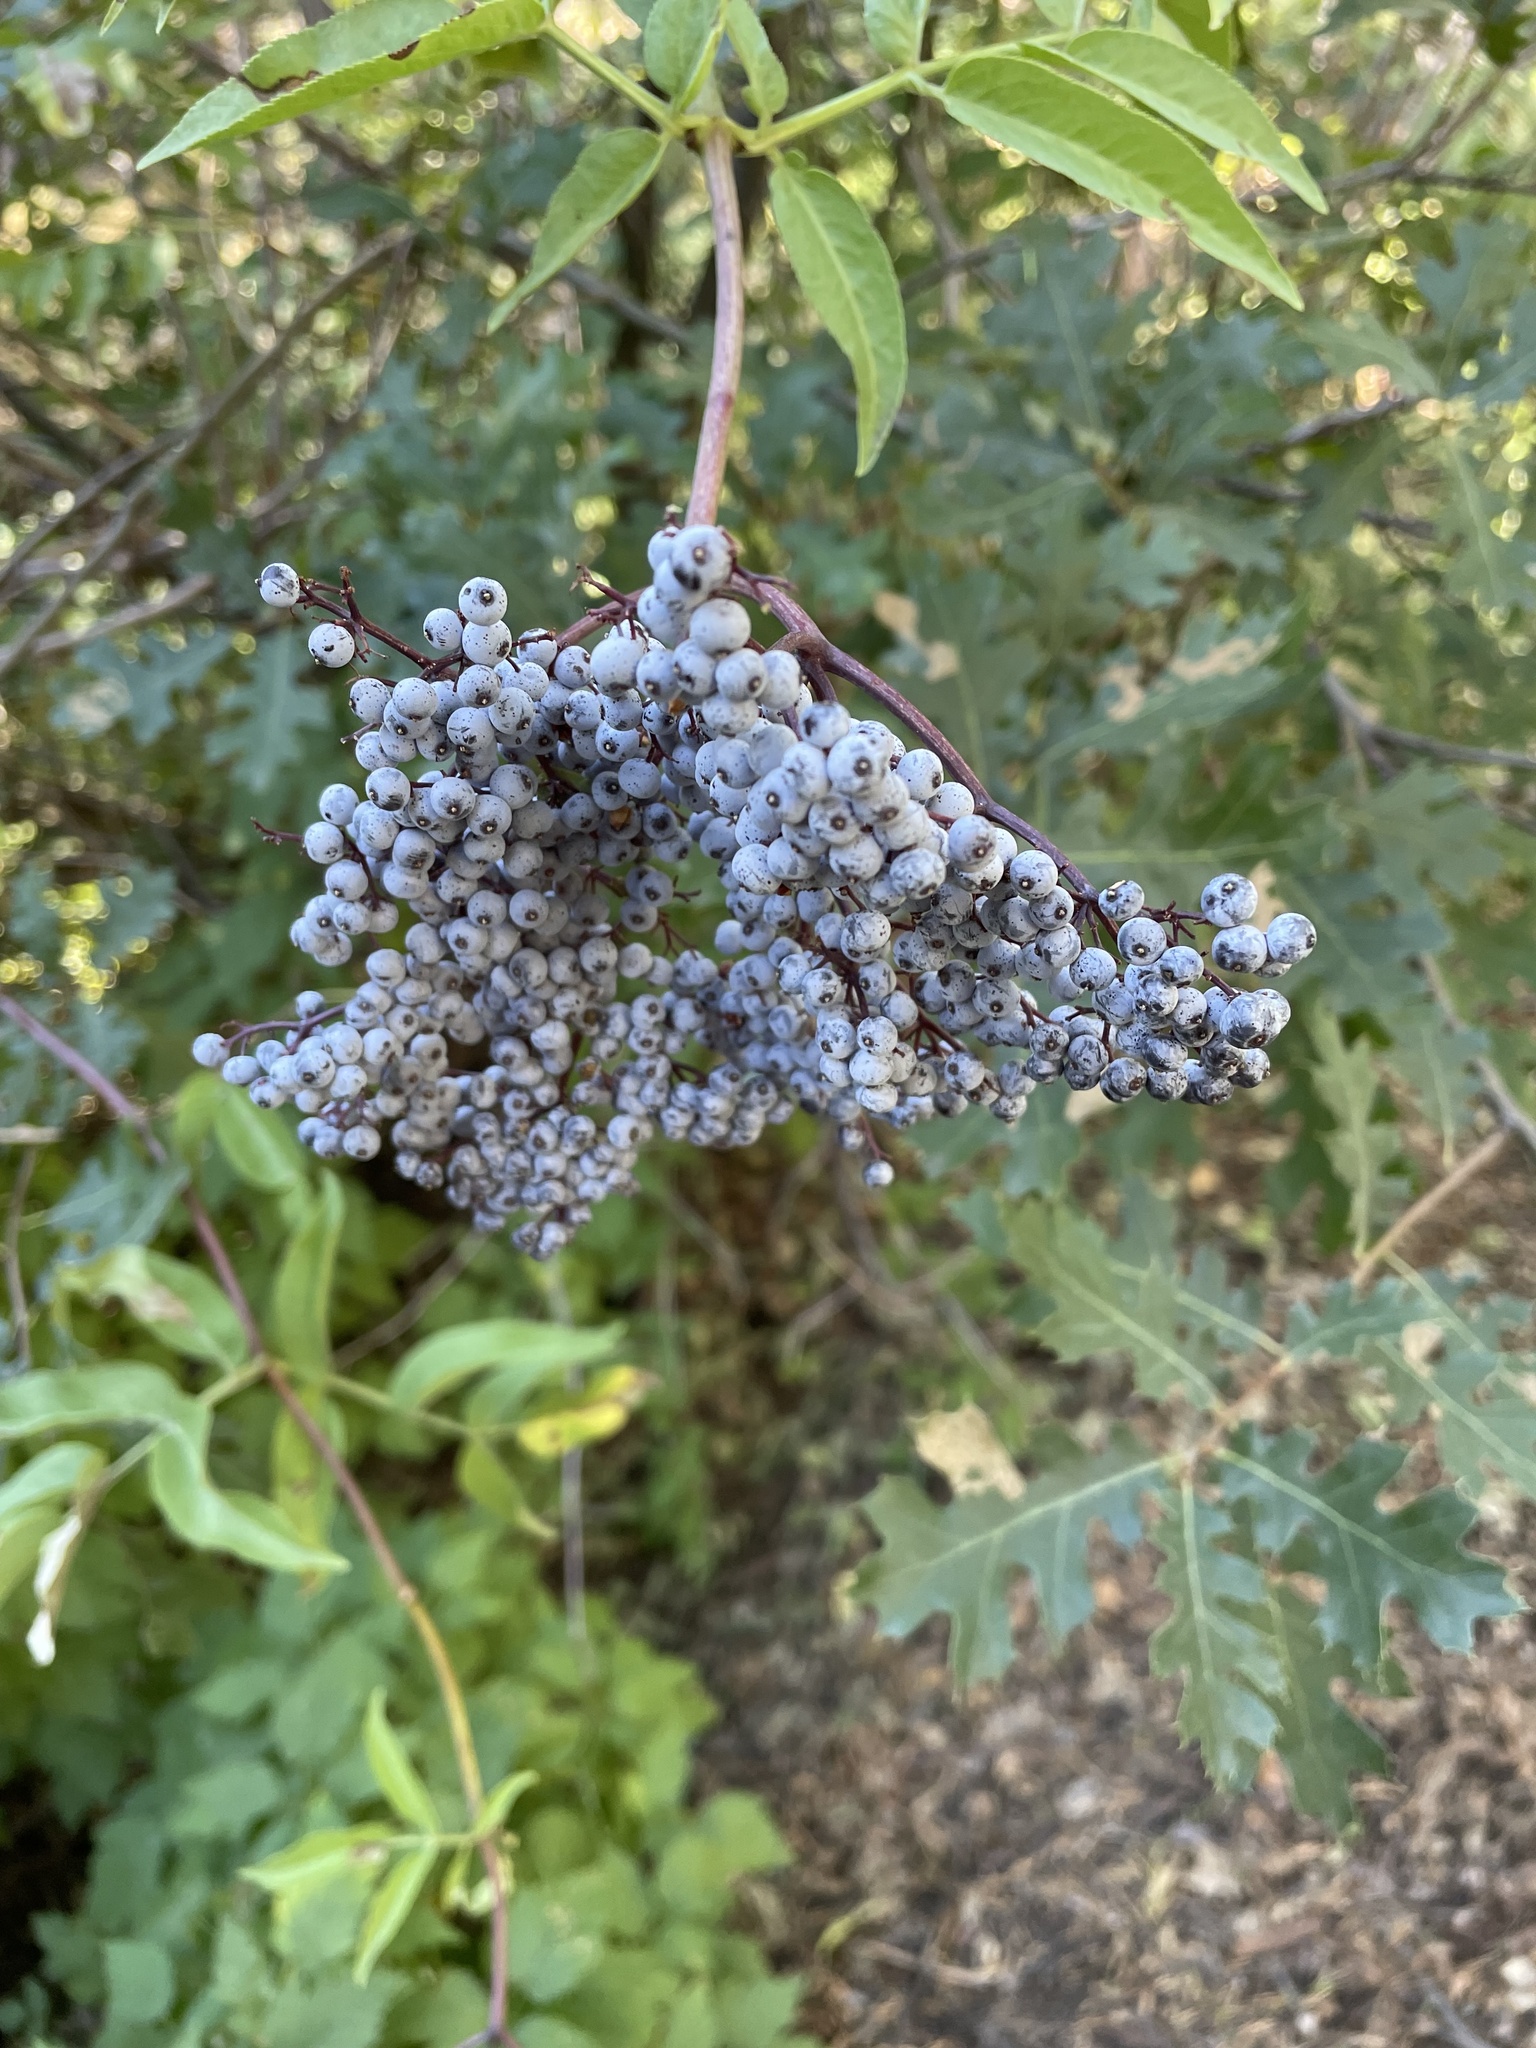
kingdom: Plantae
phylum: Tracheophyta
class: Magnoliopsida
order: Dipsacales
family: Viburnaceae
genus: Sambucus
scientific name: Sambucus cerulea
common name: Blue elder
